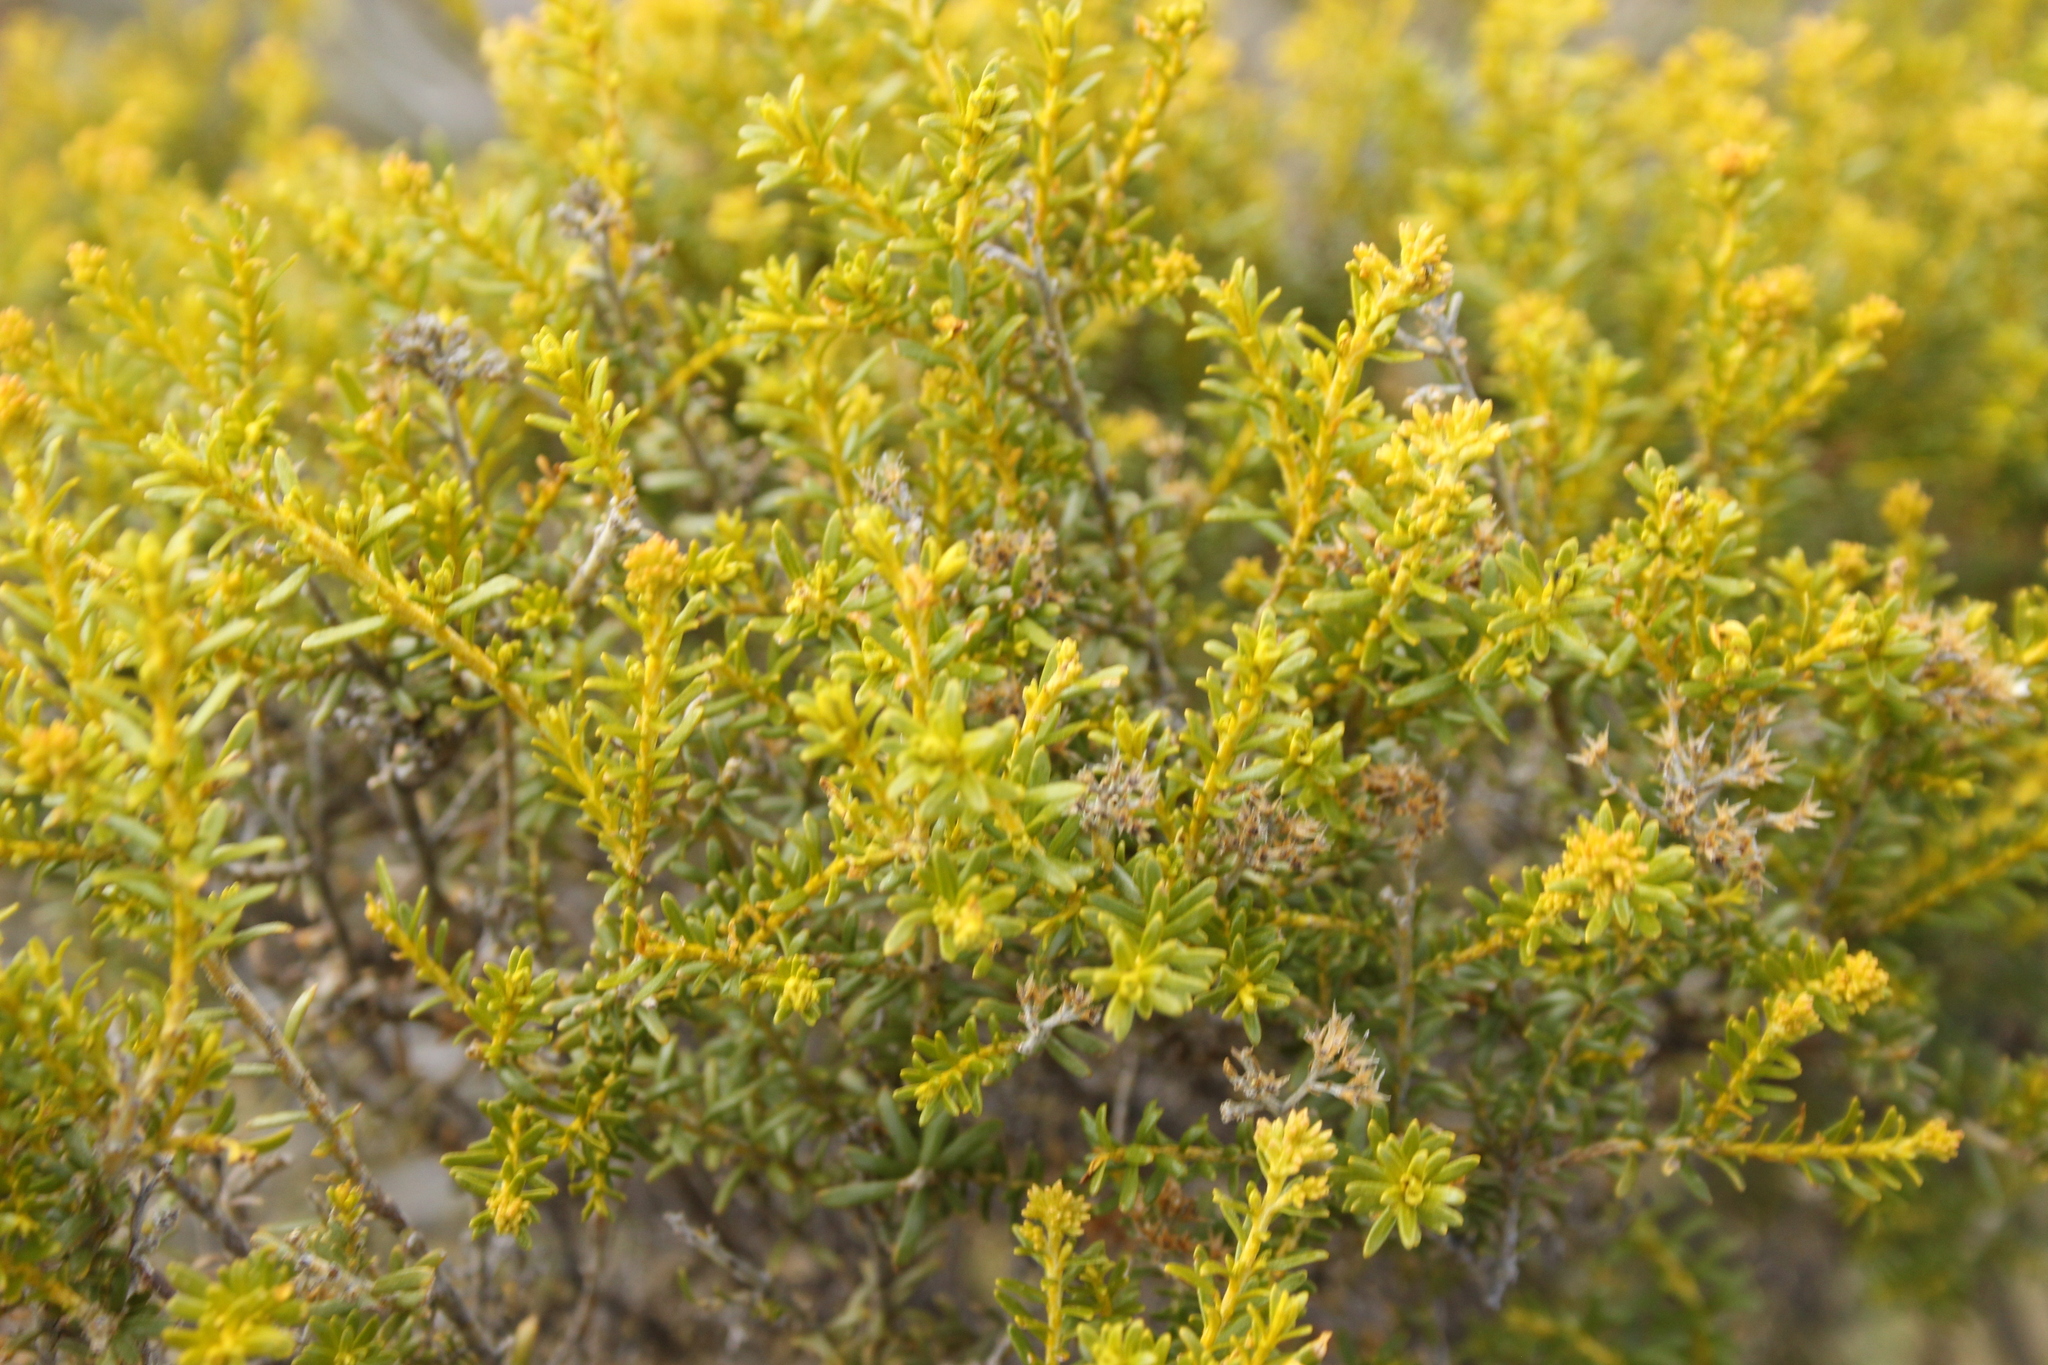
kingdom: Plantae
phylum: Tracheophyta
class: Magnoliopsida
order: Asterales
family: Asteraceae
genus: Ozothamnus
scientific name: Ozothamnus leptophyllus
